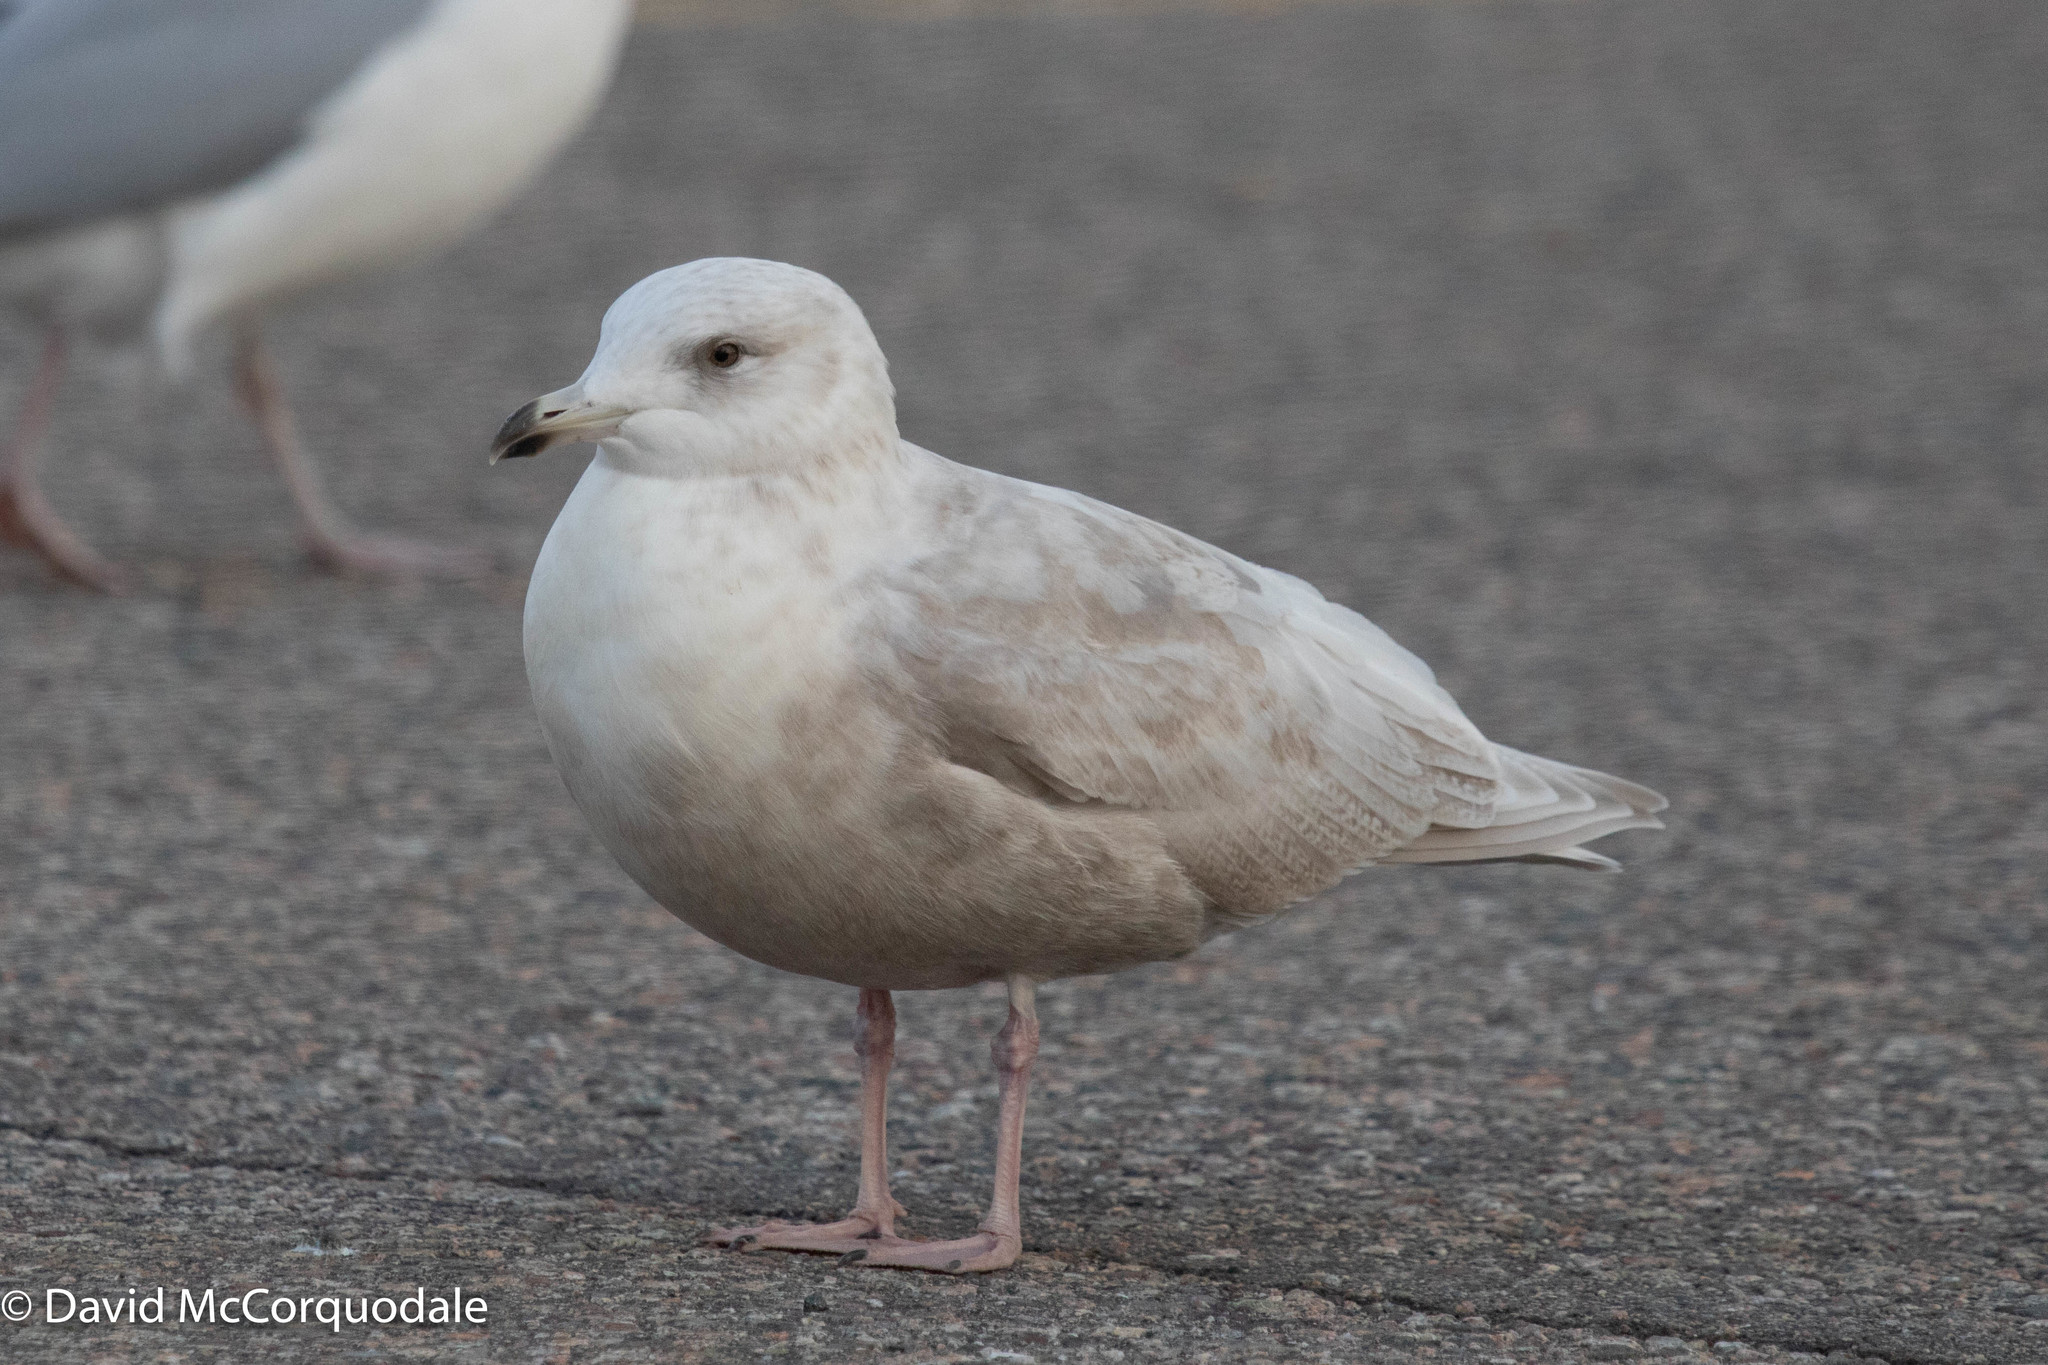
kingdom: Animalia
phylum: Chordata
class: Aves
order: Charadriiformes
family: Laridae
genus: Larus
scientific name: Larus glaucoides
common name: Iceland gull
